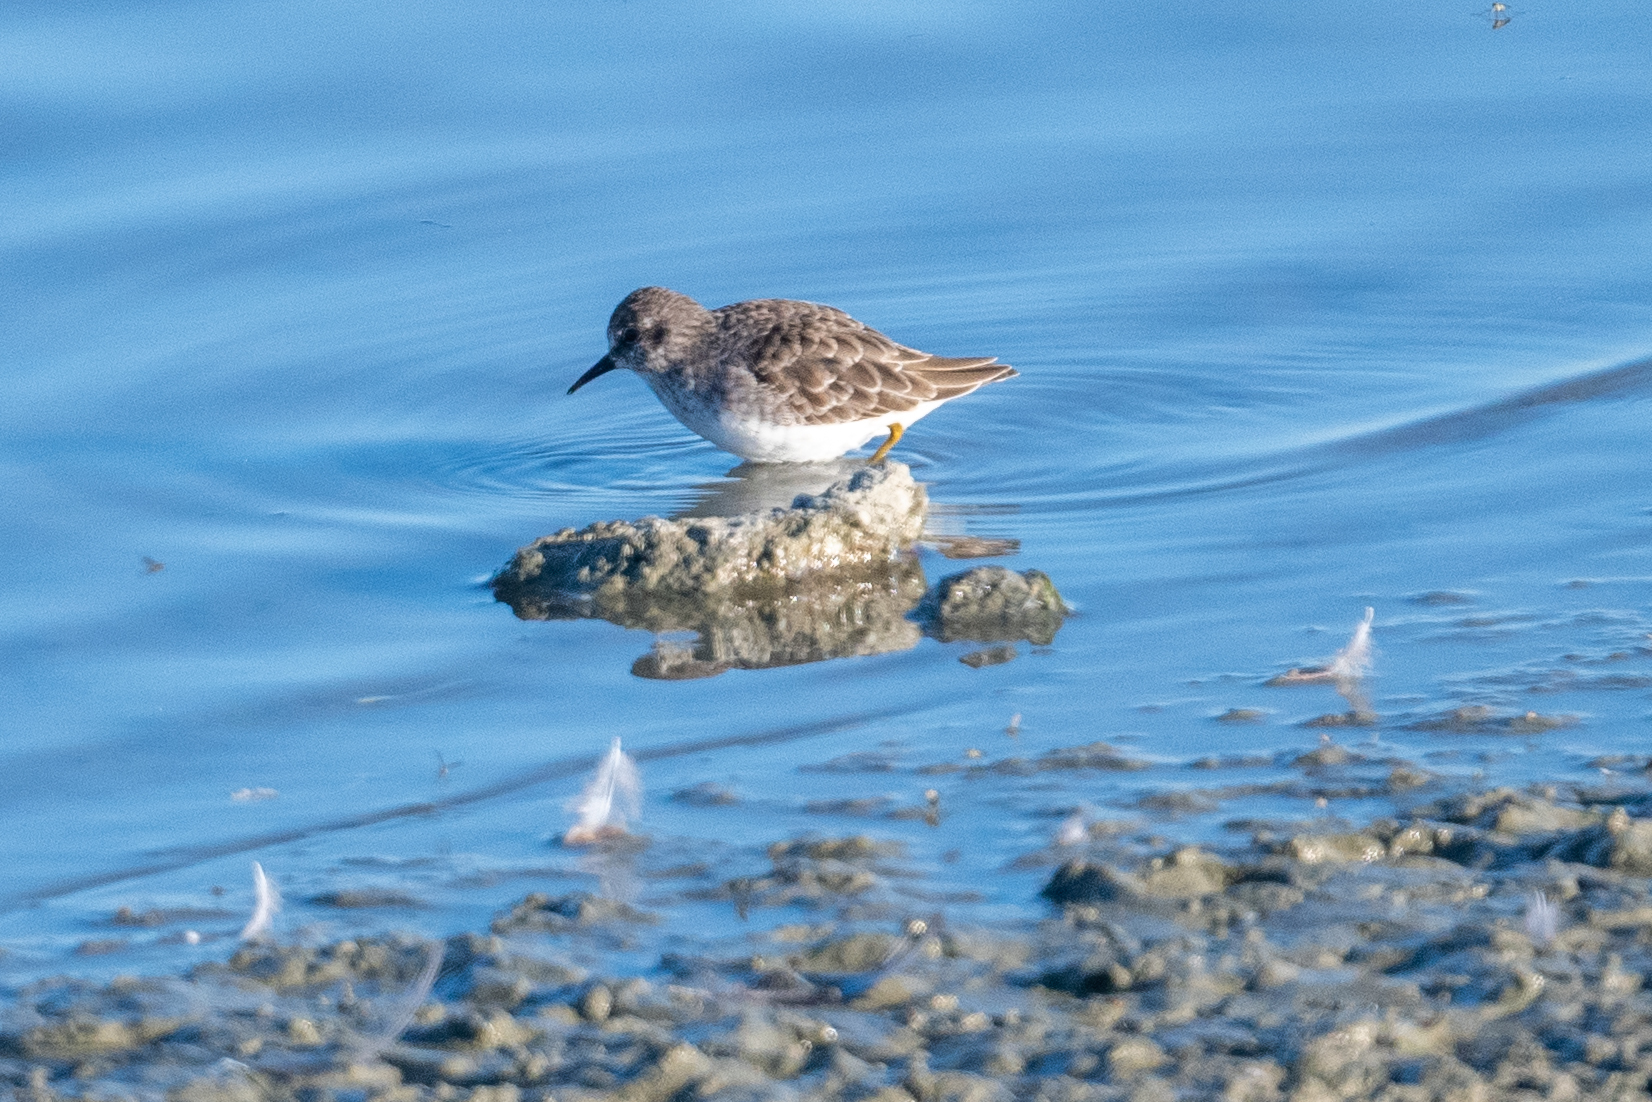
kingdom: Animalia
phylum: Chordata
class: Aves
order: Charadriiformes
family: Scolopacidae
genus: Calidris
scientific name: Calidris minutilla
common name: Least sandpiper
